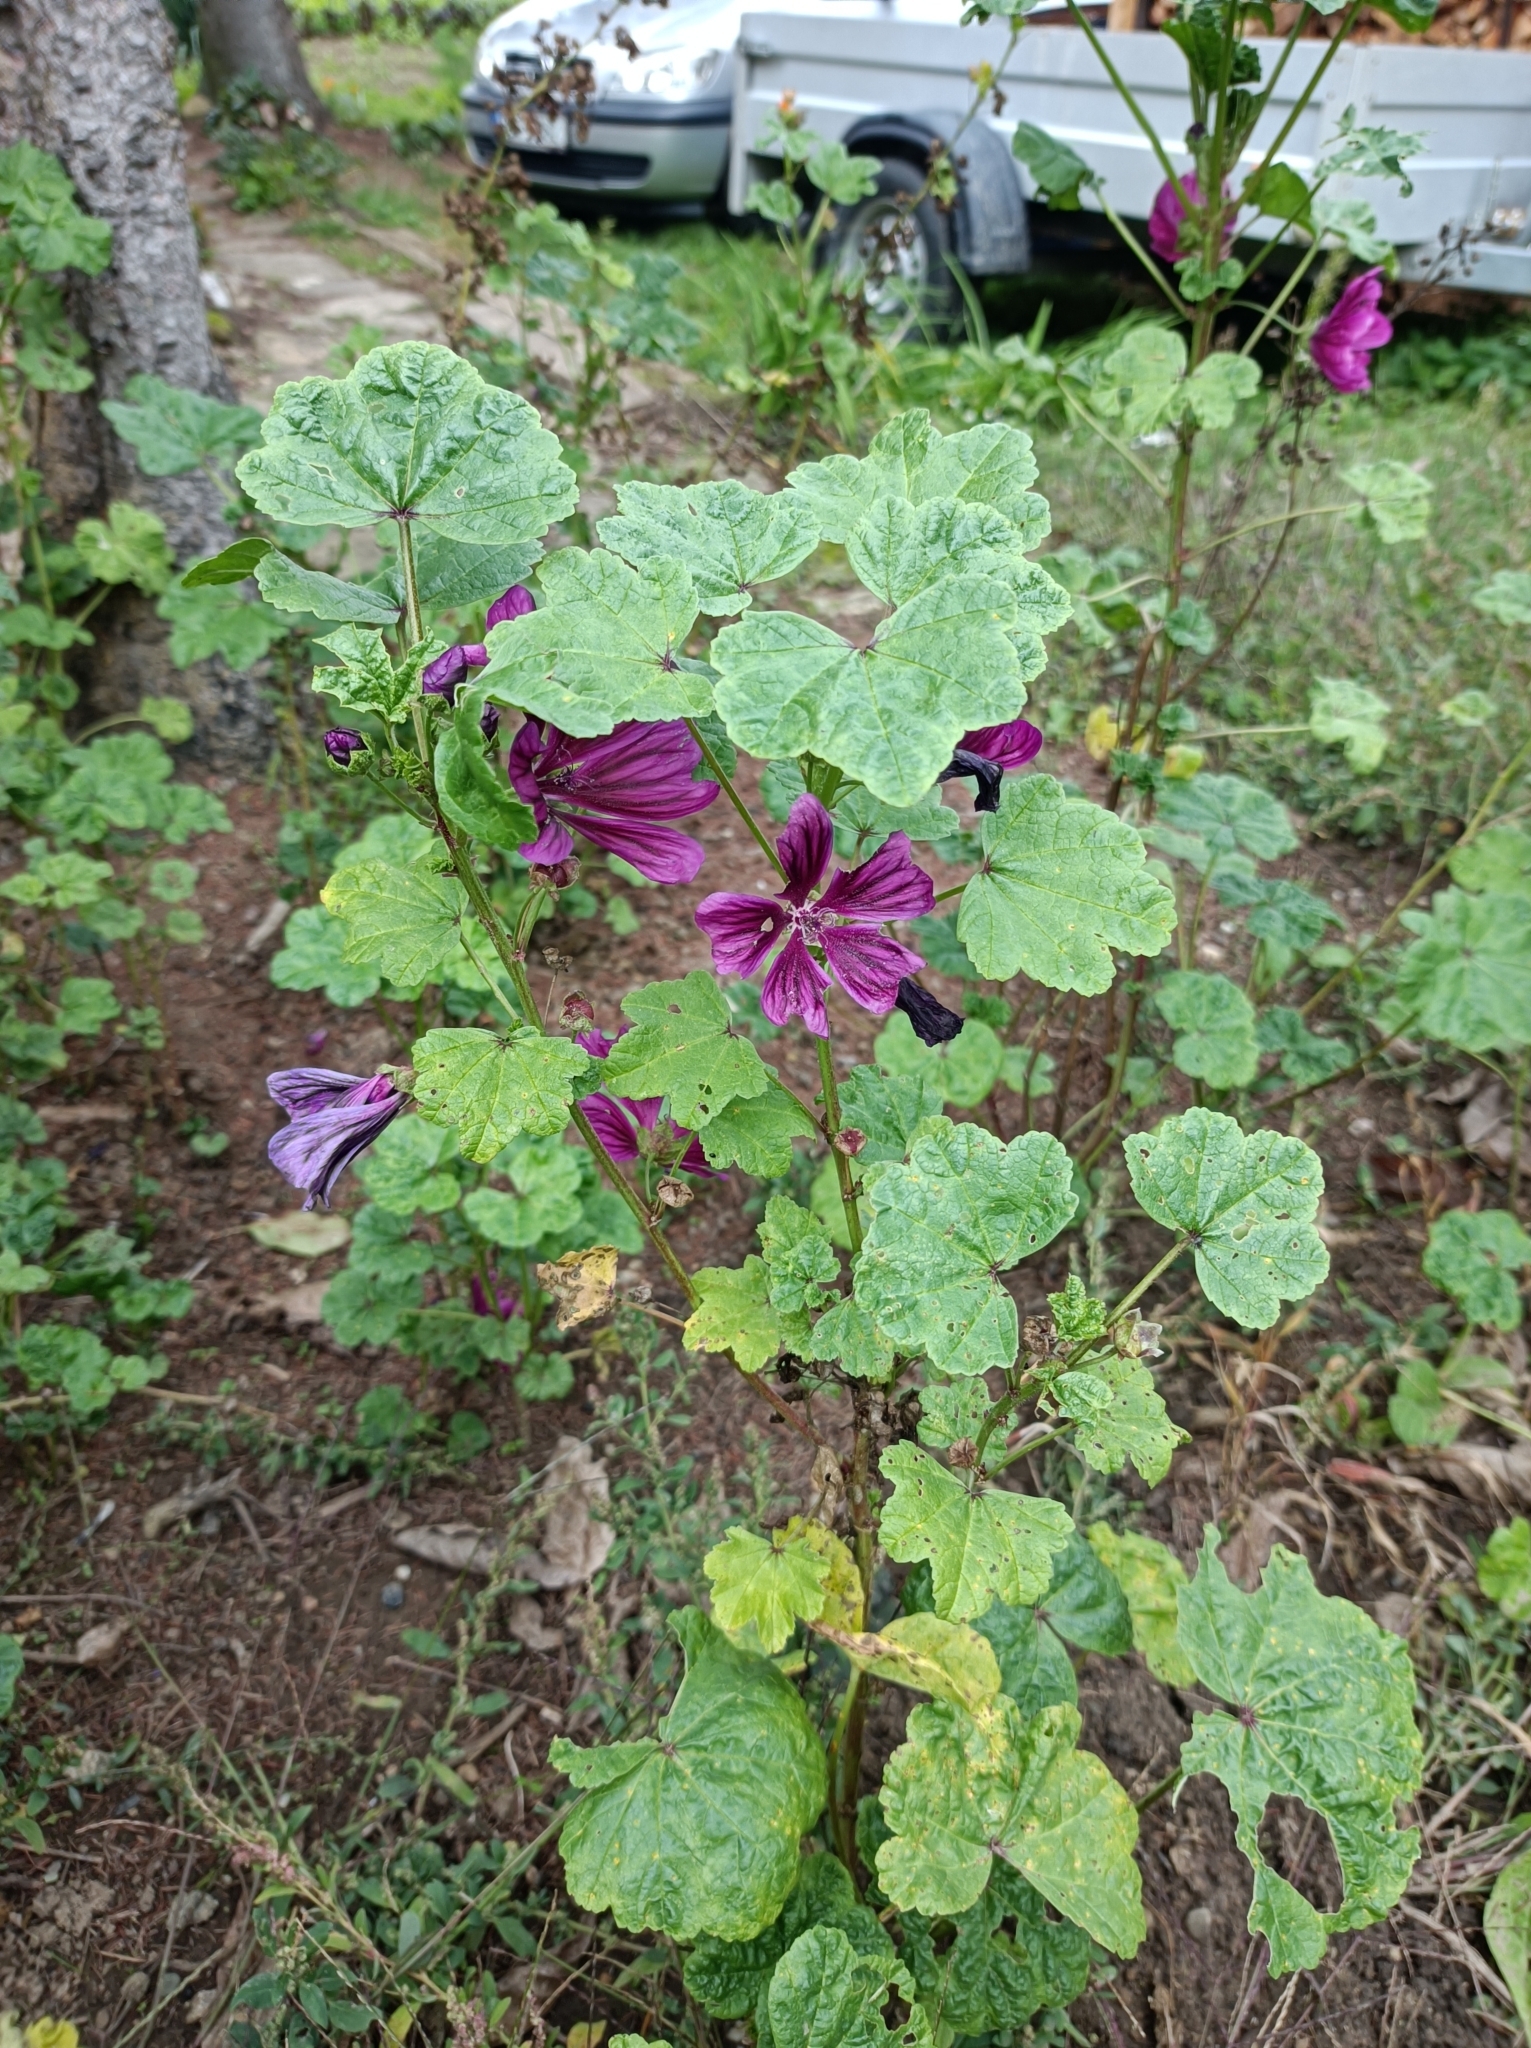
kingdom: Plantae
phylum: Tracheophyta
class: Magnoliopsida
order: Malvales
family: Malvaceae
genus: Malva
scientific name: Malva sylvestris
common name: Common mallow
